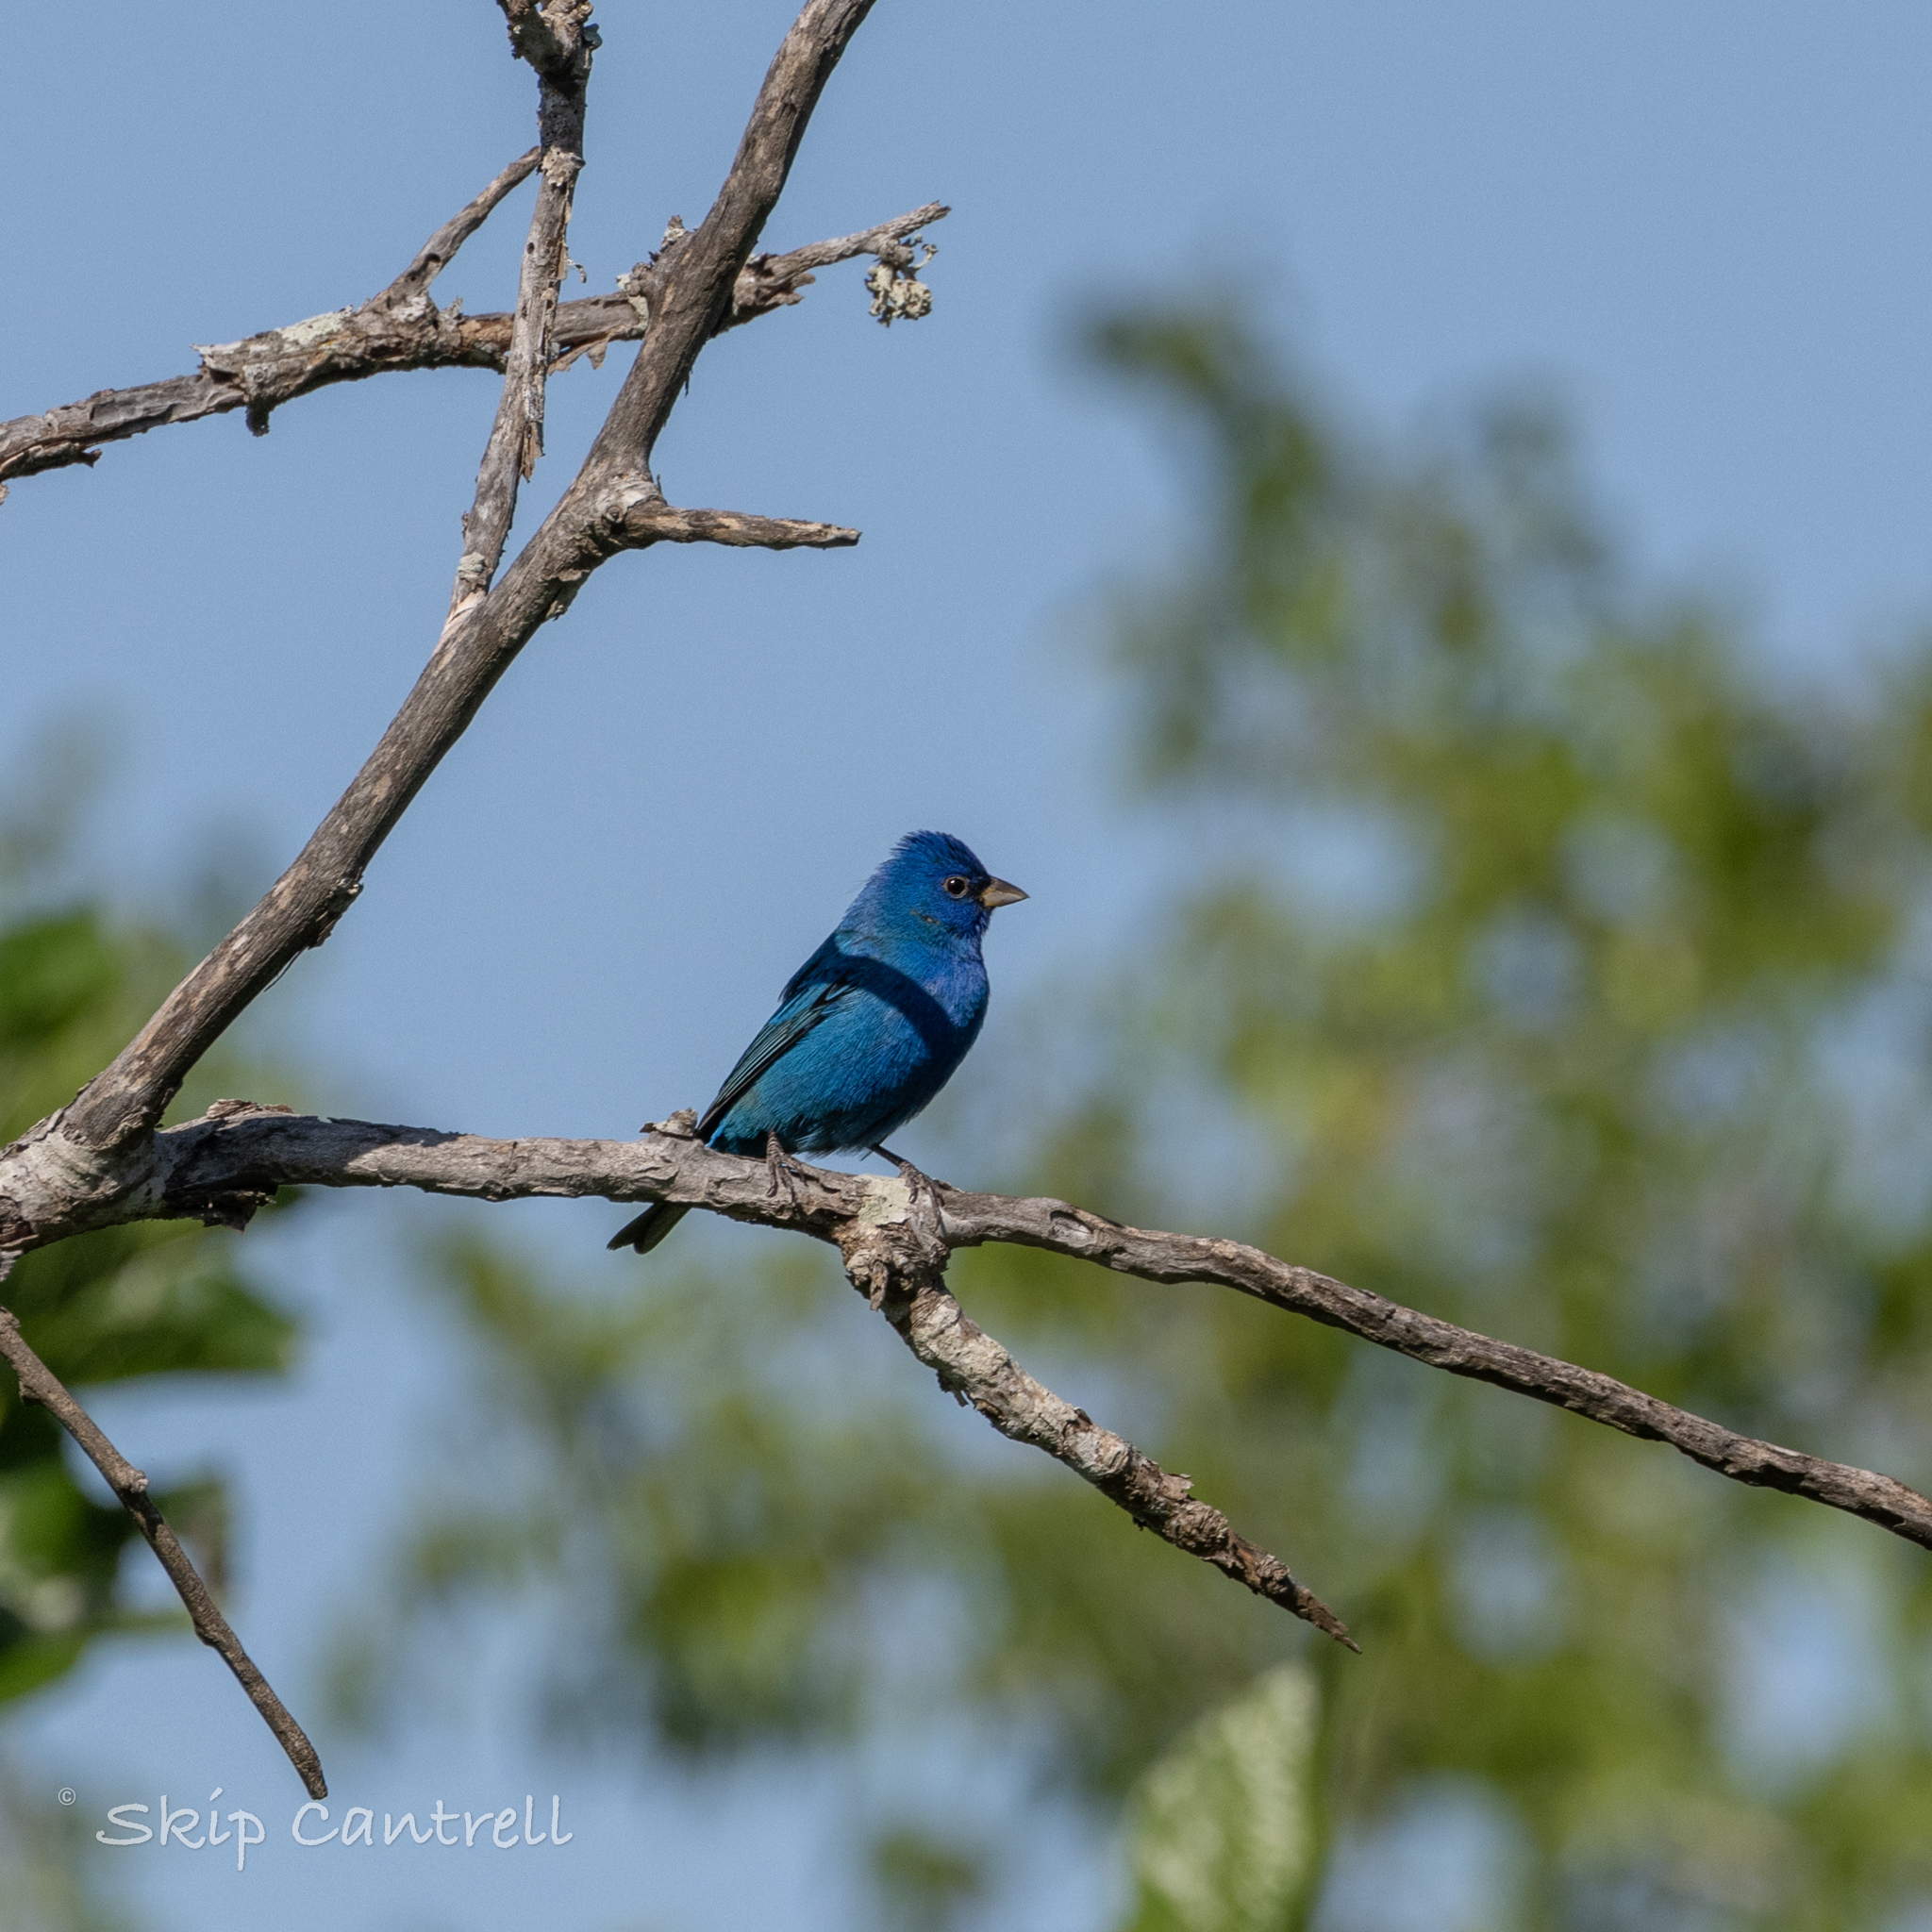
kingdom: Animalia
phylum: Chordata
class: Aves
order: Passeriformes
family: Cardinalidae
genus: Passerina
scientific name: Passerina cyanea
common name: Indigo bunting
